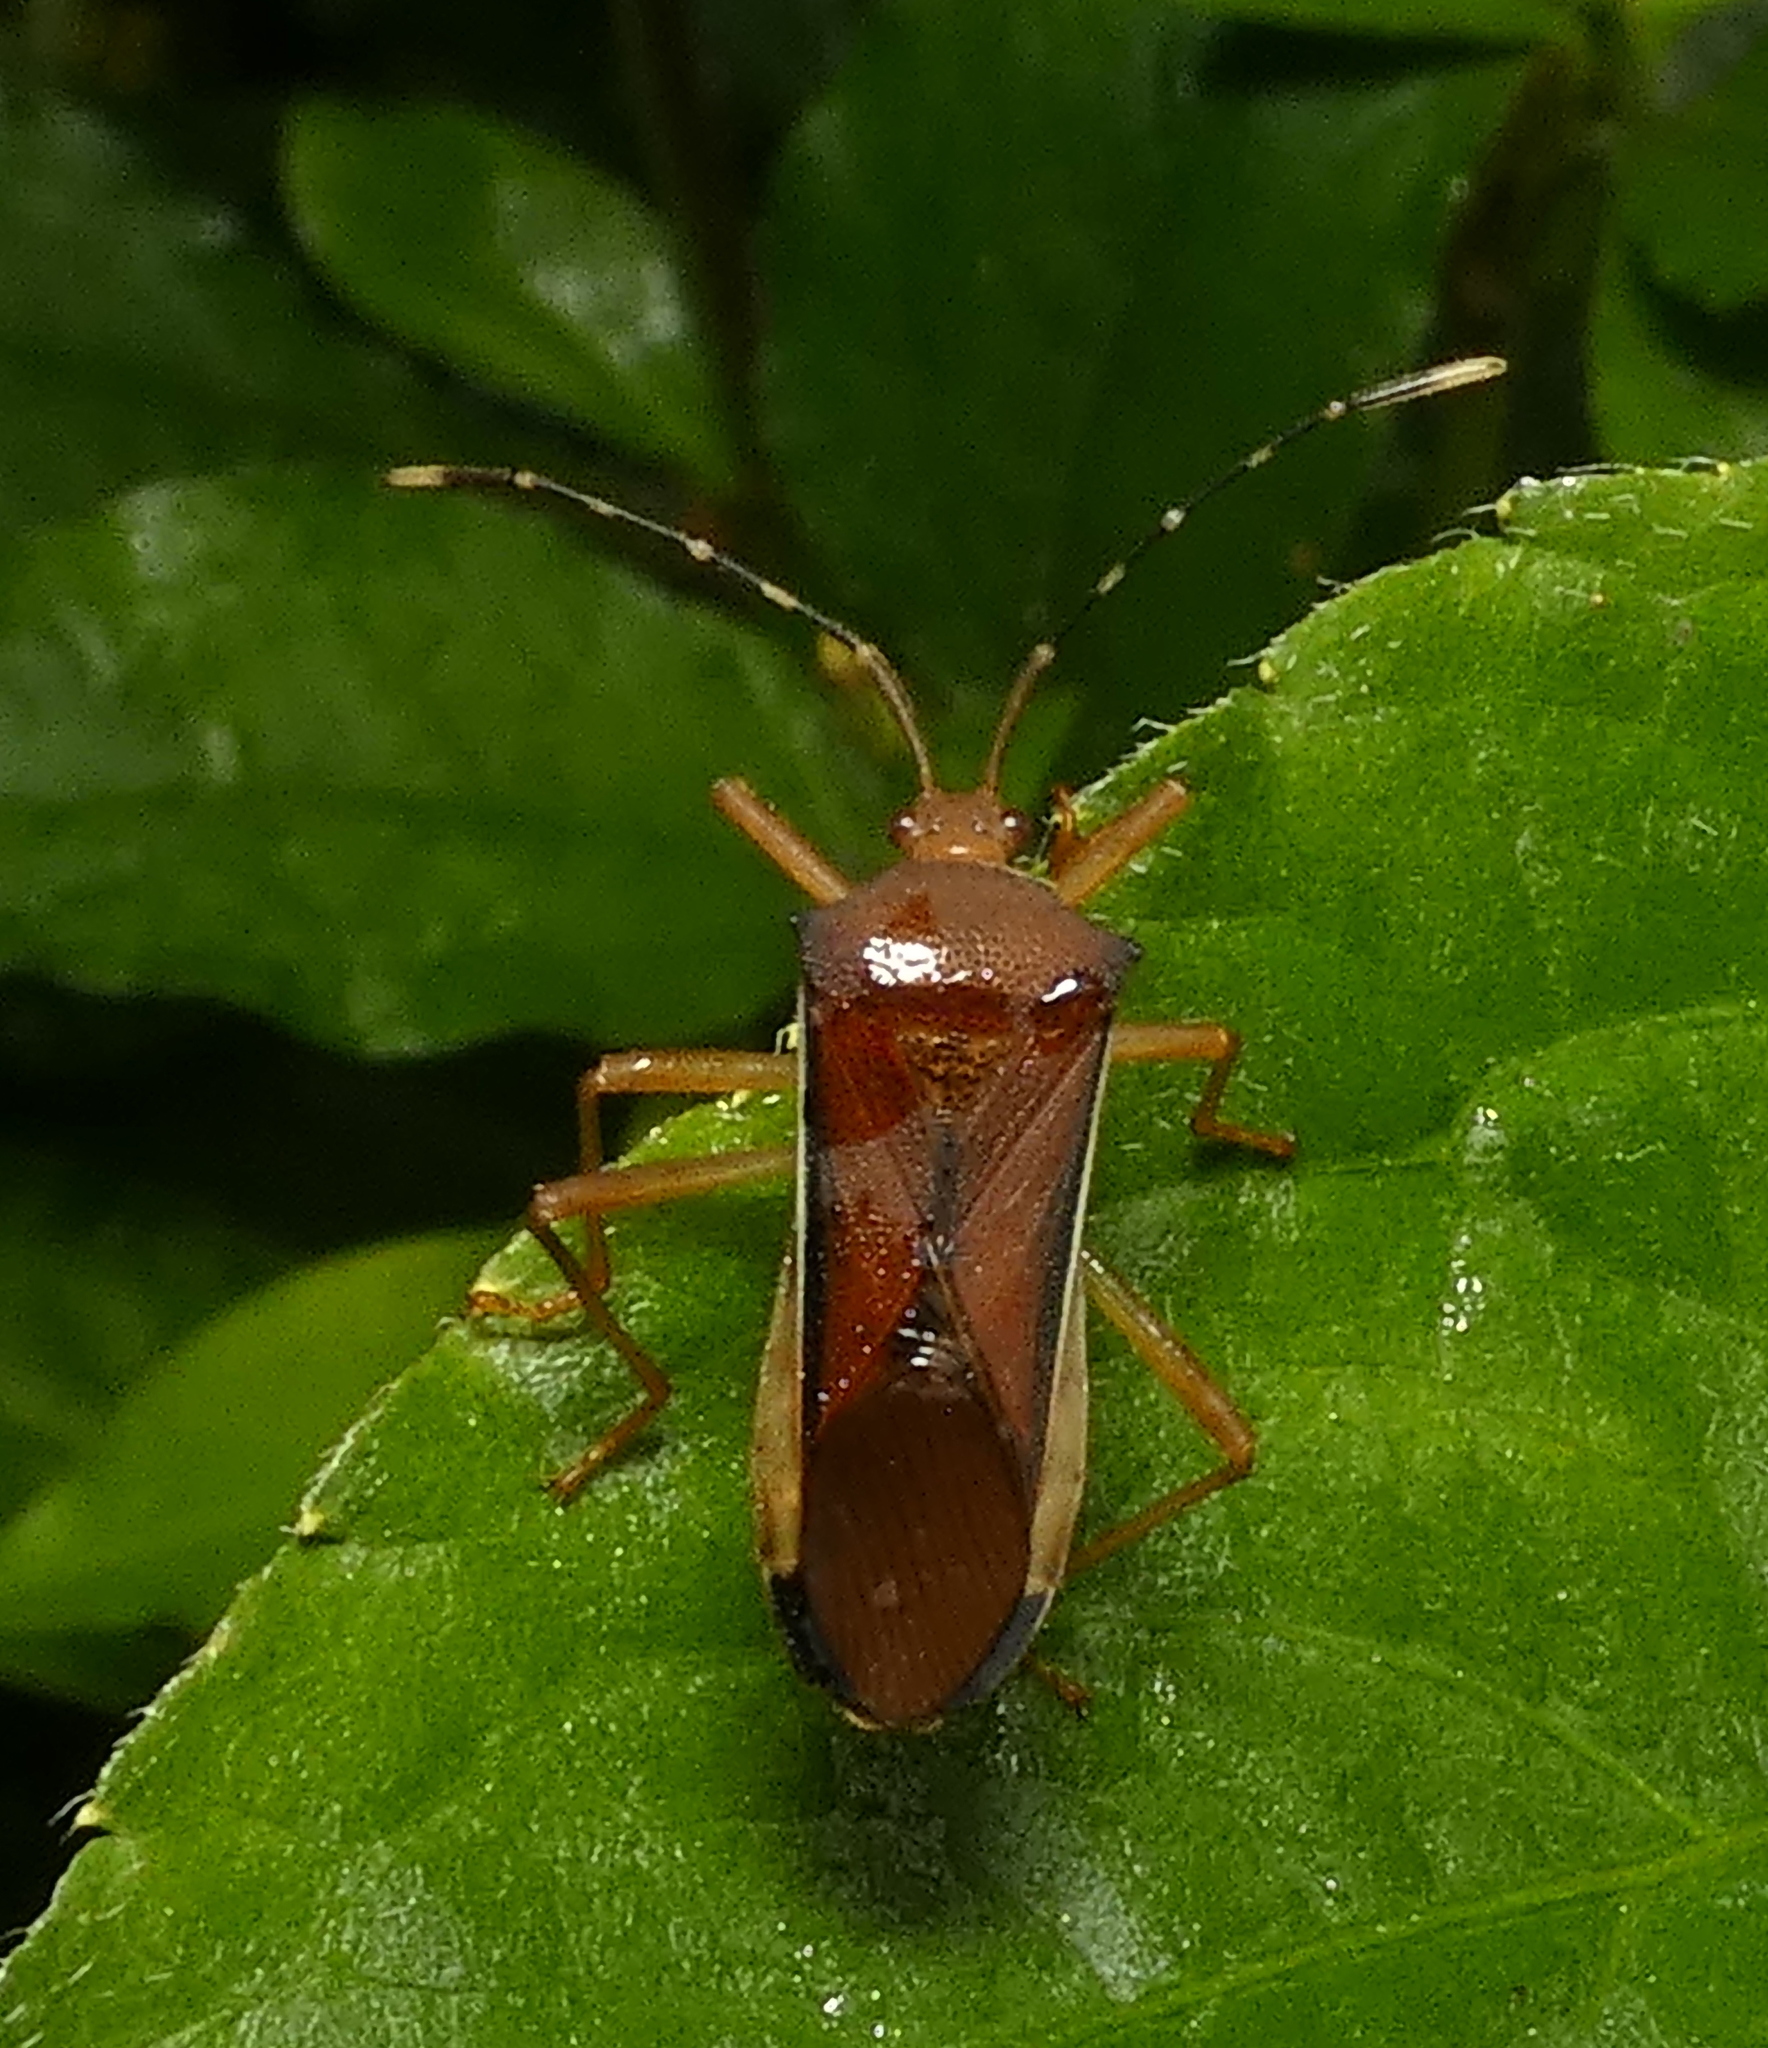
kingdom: Animalia
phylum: Arthropoda
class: Insecta
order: Hemiptera
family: Coreidae
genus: Anasa
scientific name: Anasa varicornis
